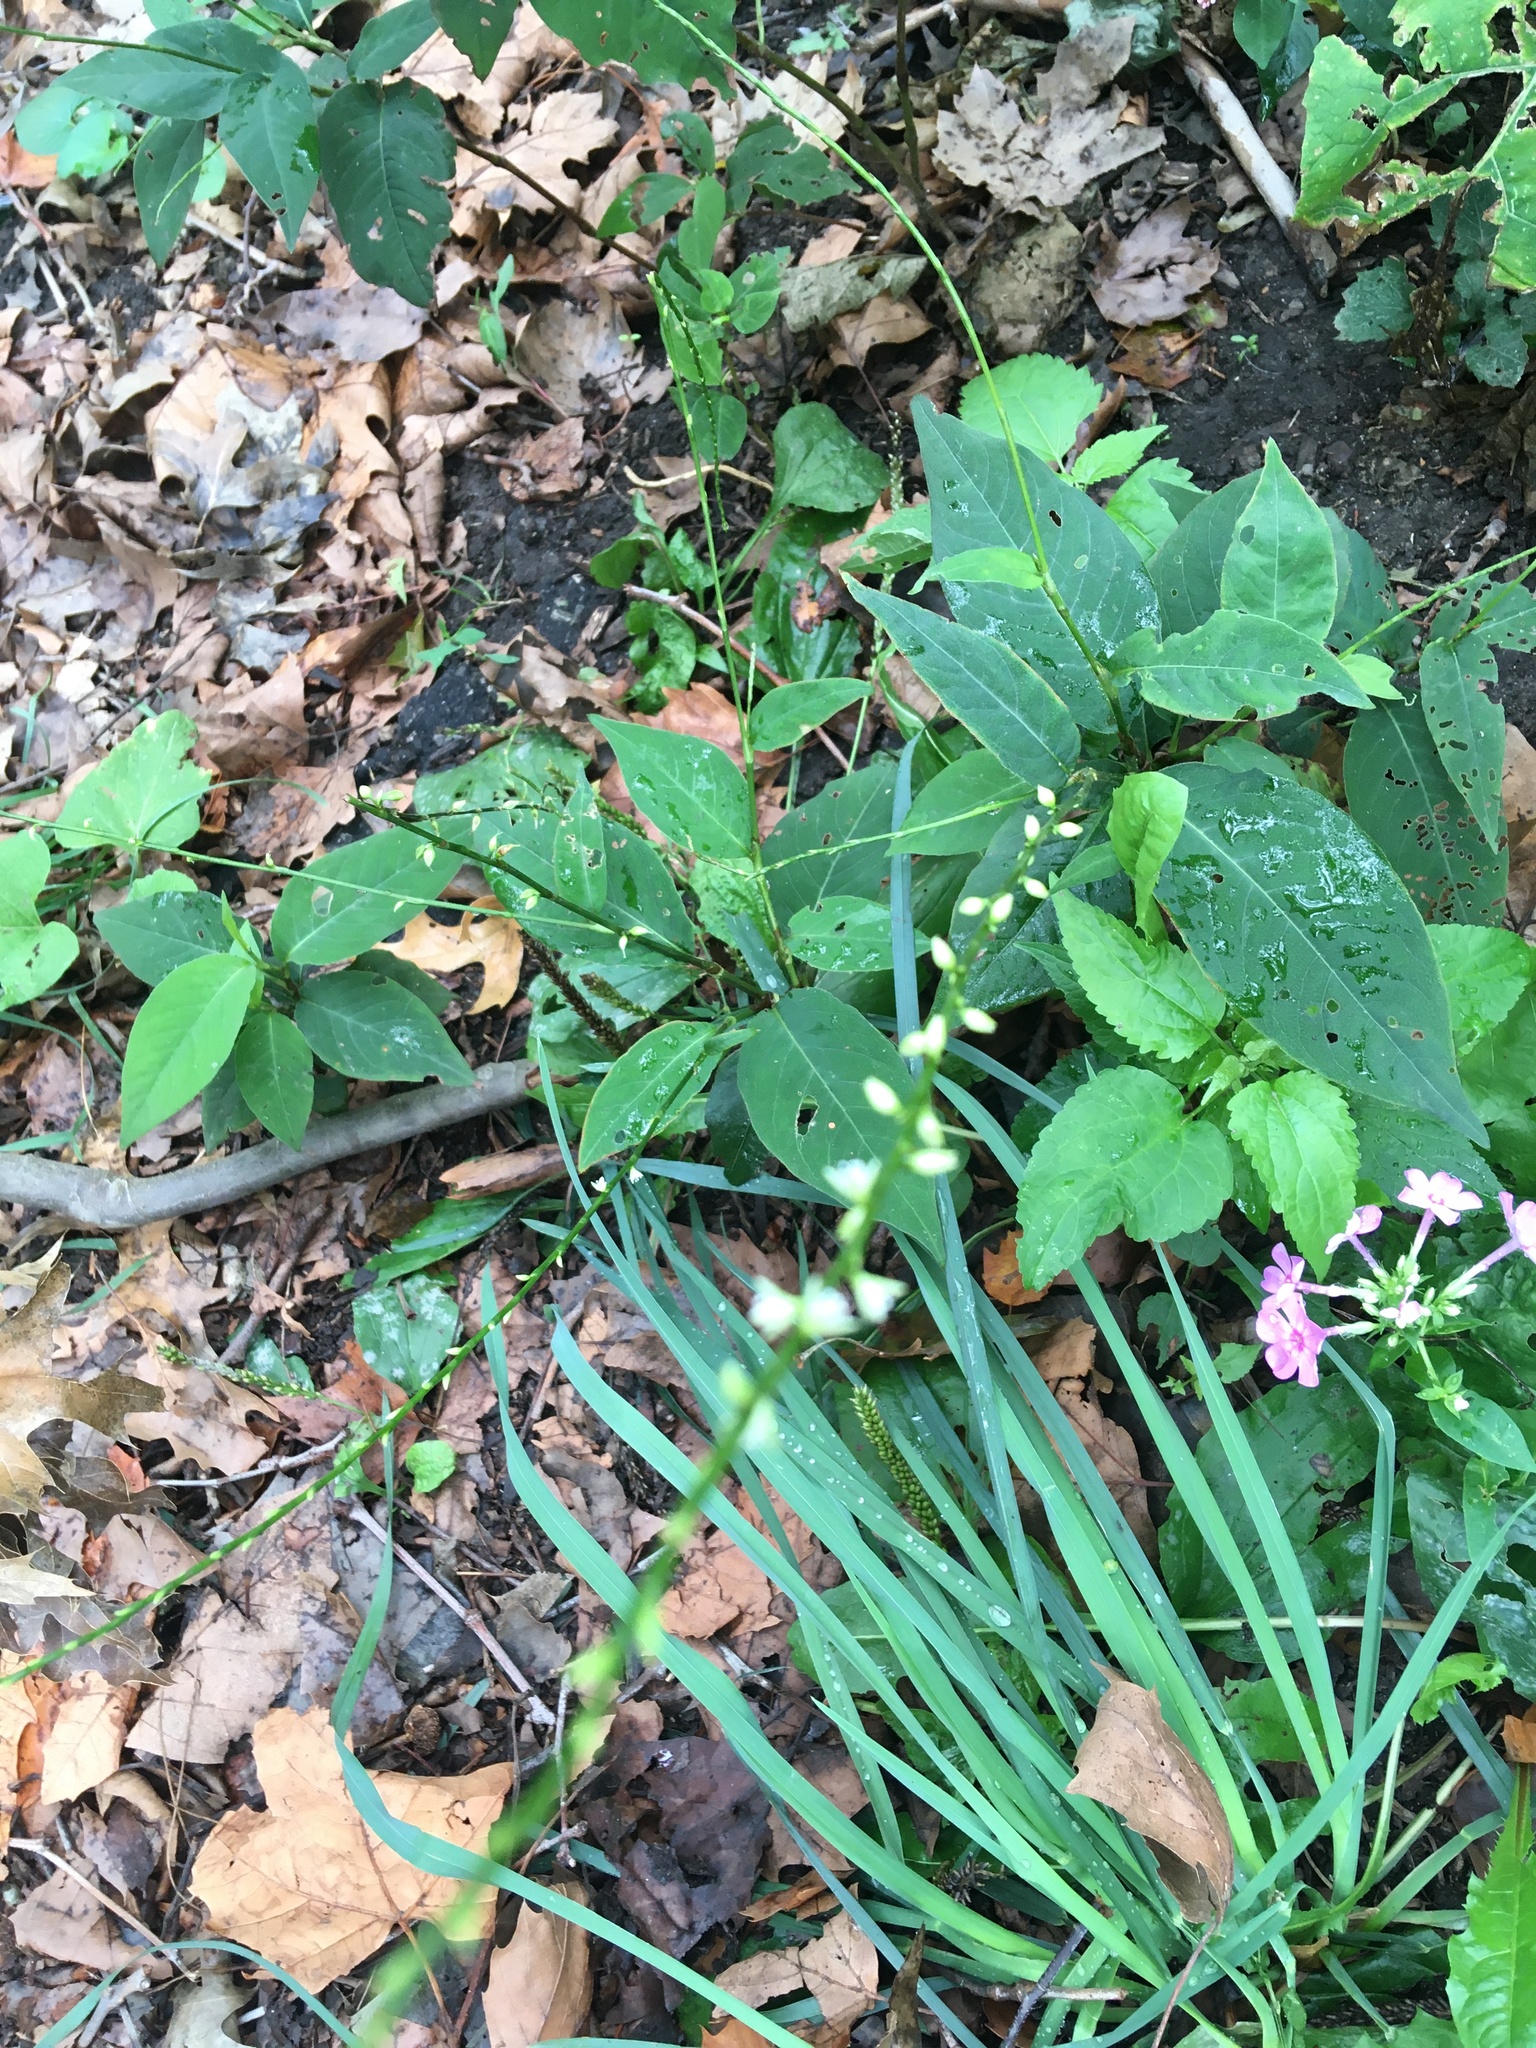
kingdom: Plantae
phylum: Tracheophyta
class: Magnoliopsida
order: Caryophyllales
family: Polygonaceae
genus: Persicaria
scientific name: Persicaria virginiana
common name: Jumpseed
